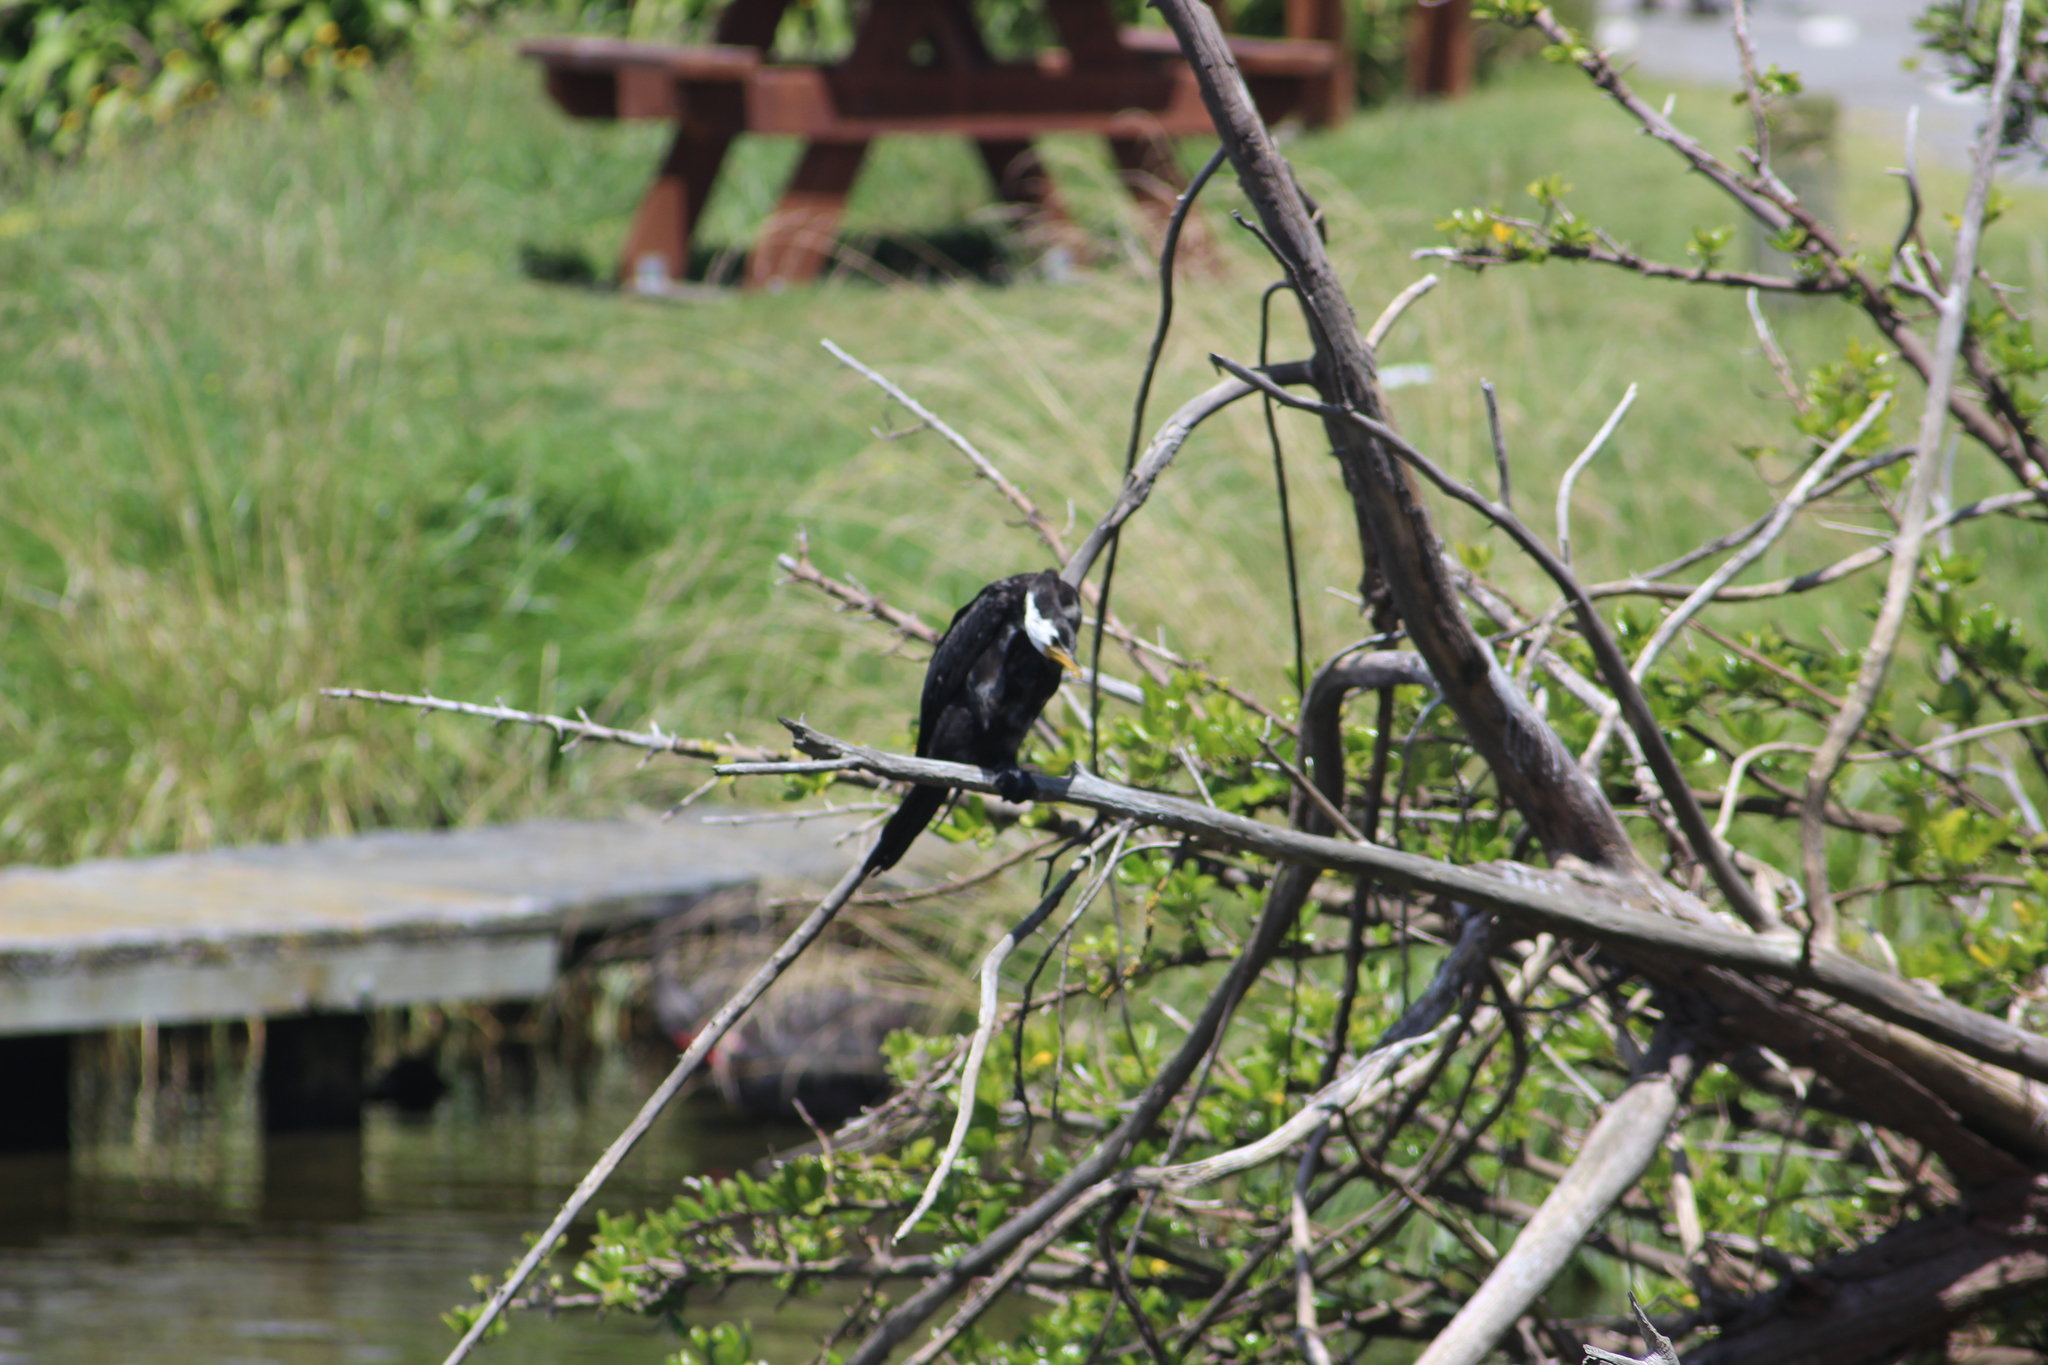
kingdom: Animalia
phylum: Chordata
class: Aves
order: Suliformes
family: Phalacrocoracidae
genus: Microcarbo
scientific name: Microcarbo melanoleucos
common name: Little pied cormorant
